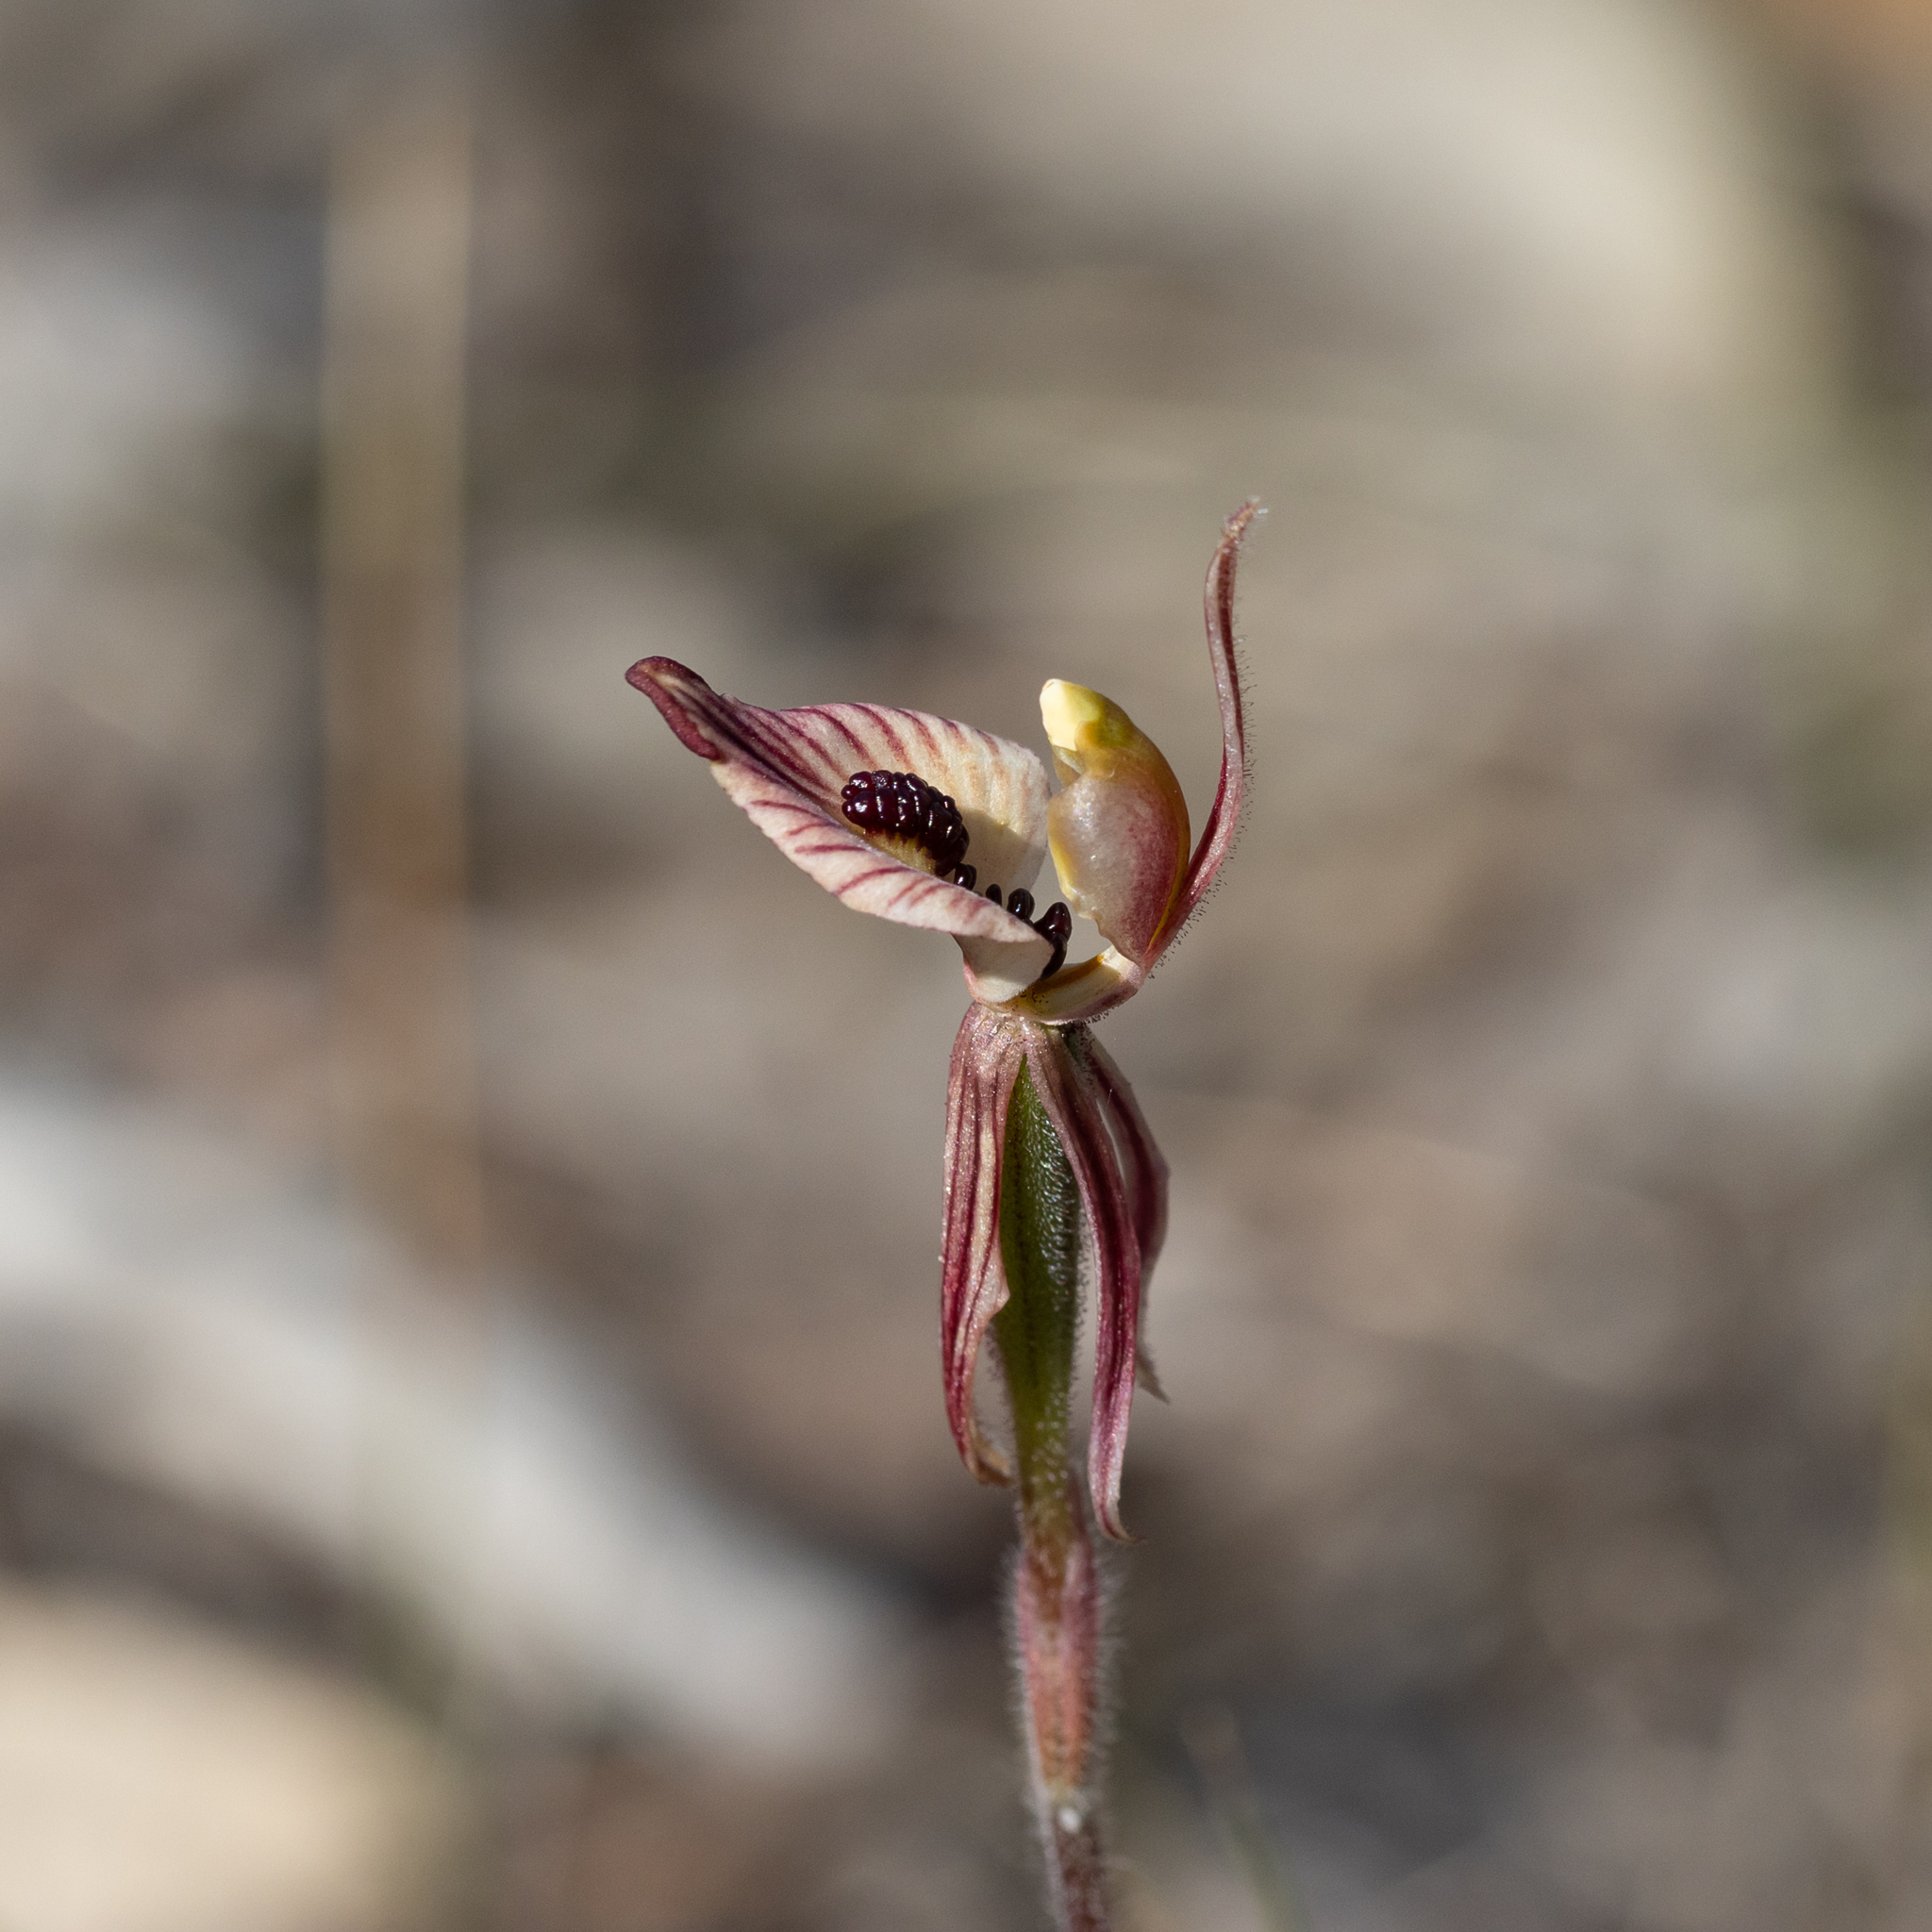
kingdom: Plantae
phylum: Tracheophyta
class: Liliopsida
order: Asparagales
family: Orchidaceae
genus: Caladenia
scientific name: Caladenia cairnsiana
